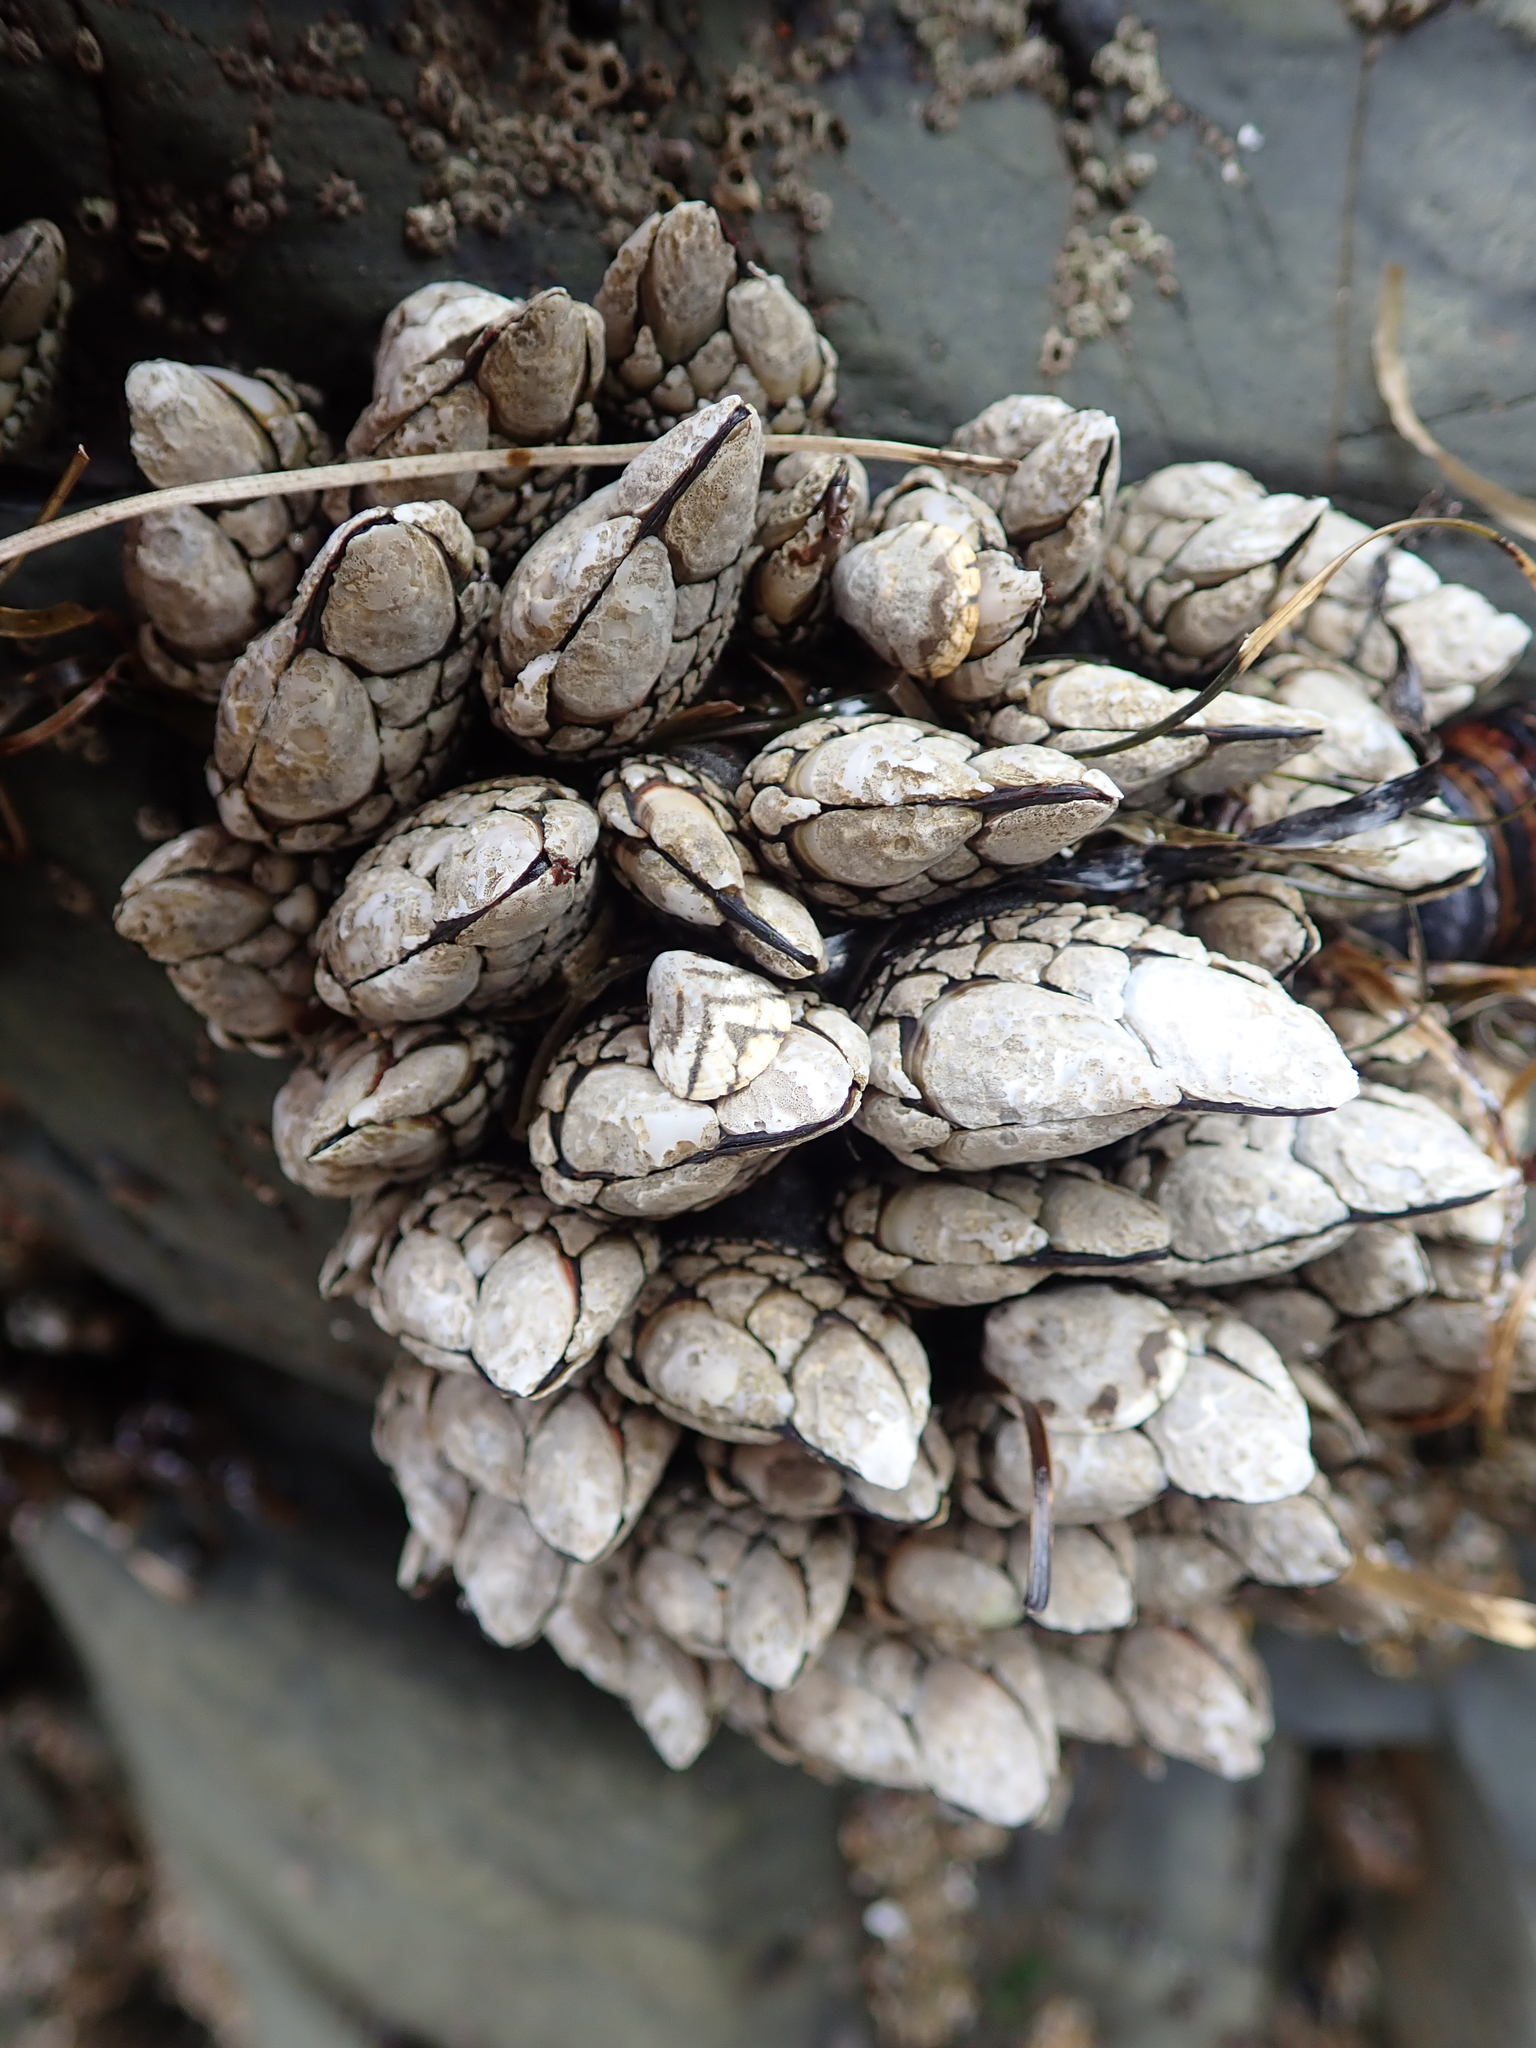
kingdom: Animalia
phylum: Arthropoda
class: Maxillopoda
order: Pedunculata
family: Pollicipedidae
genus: Pollicipes
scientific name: Pollicipes polymerus
